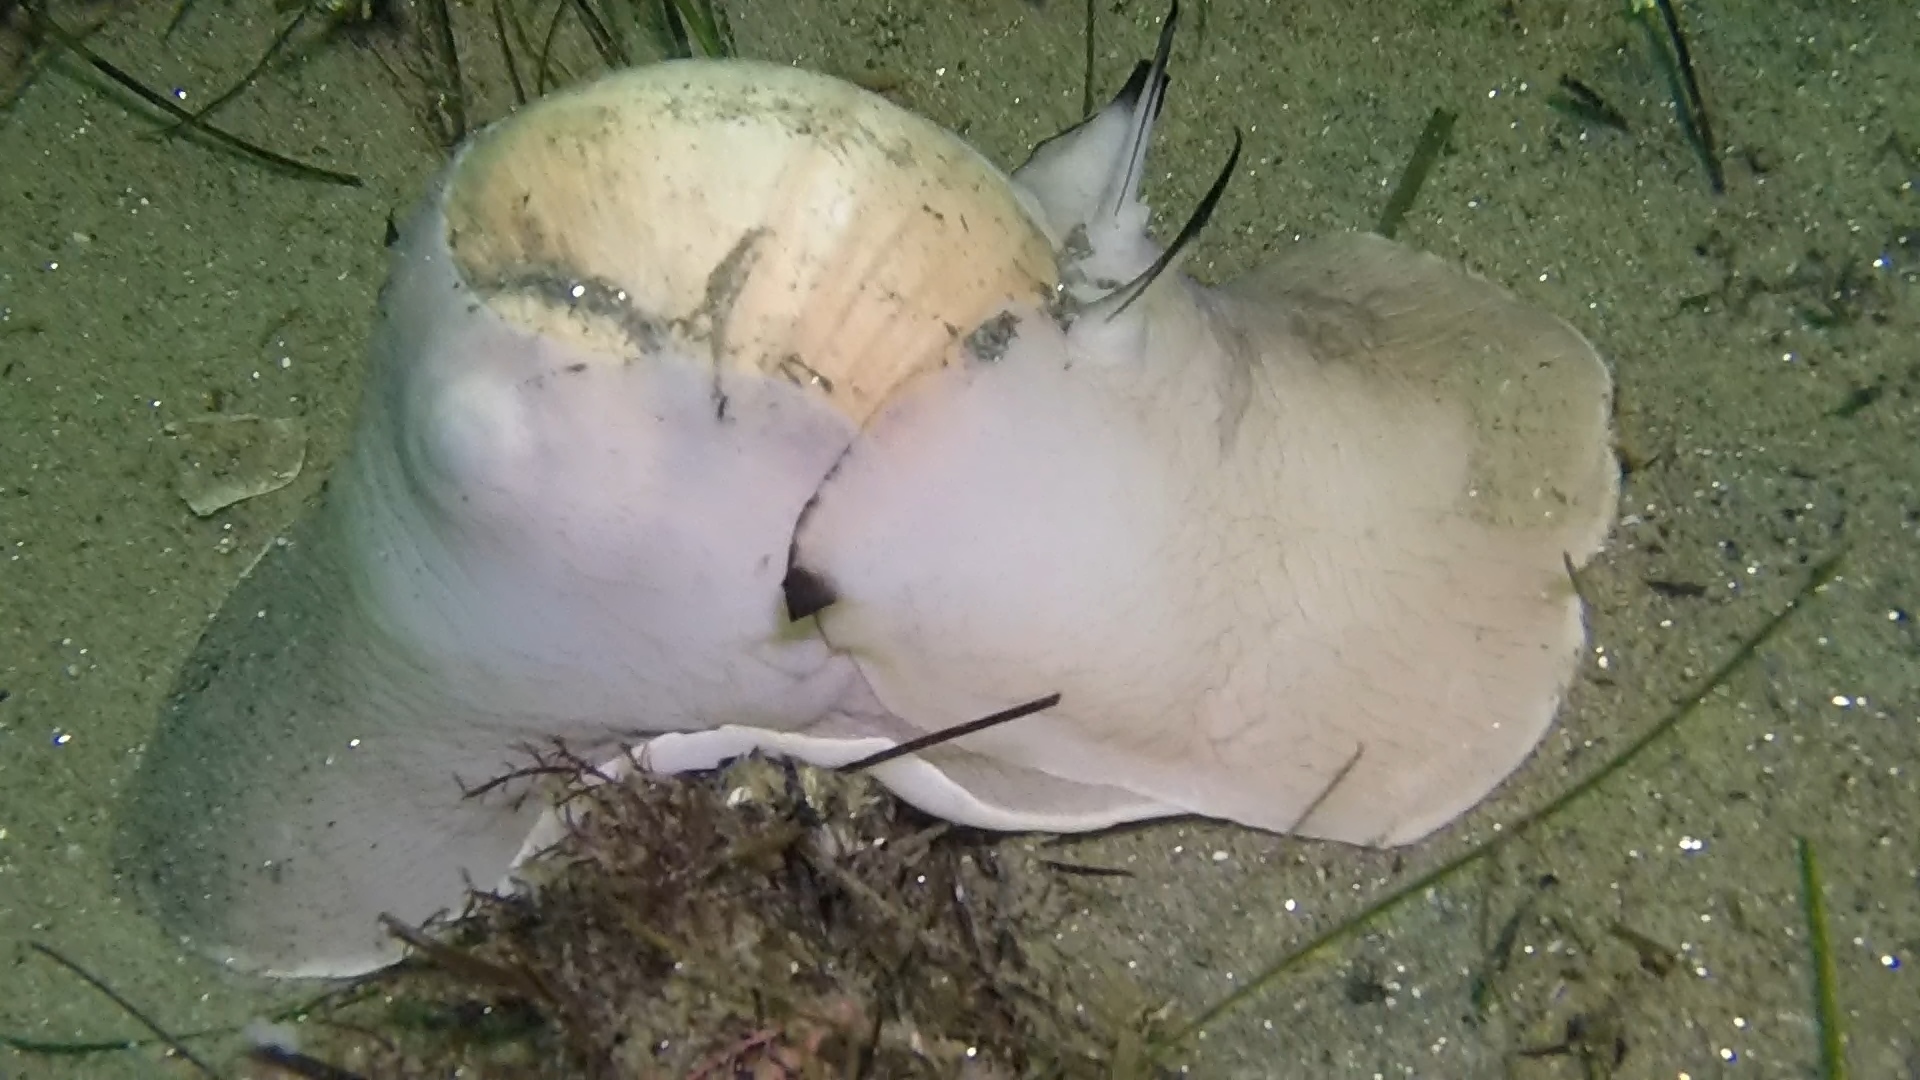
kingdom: Animalia
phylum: Mollusca
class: Gastropoda
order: Littorinimorpha
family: Naticidae
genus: Neverita
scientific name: Neverita lewisii
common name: Lewis' moonsnail
